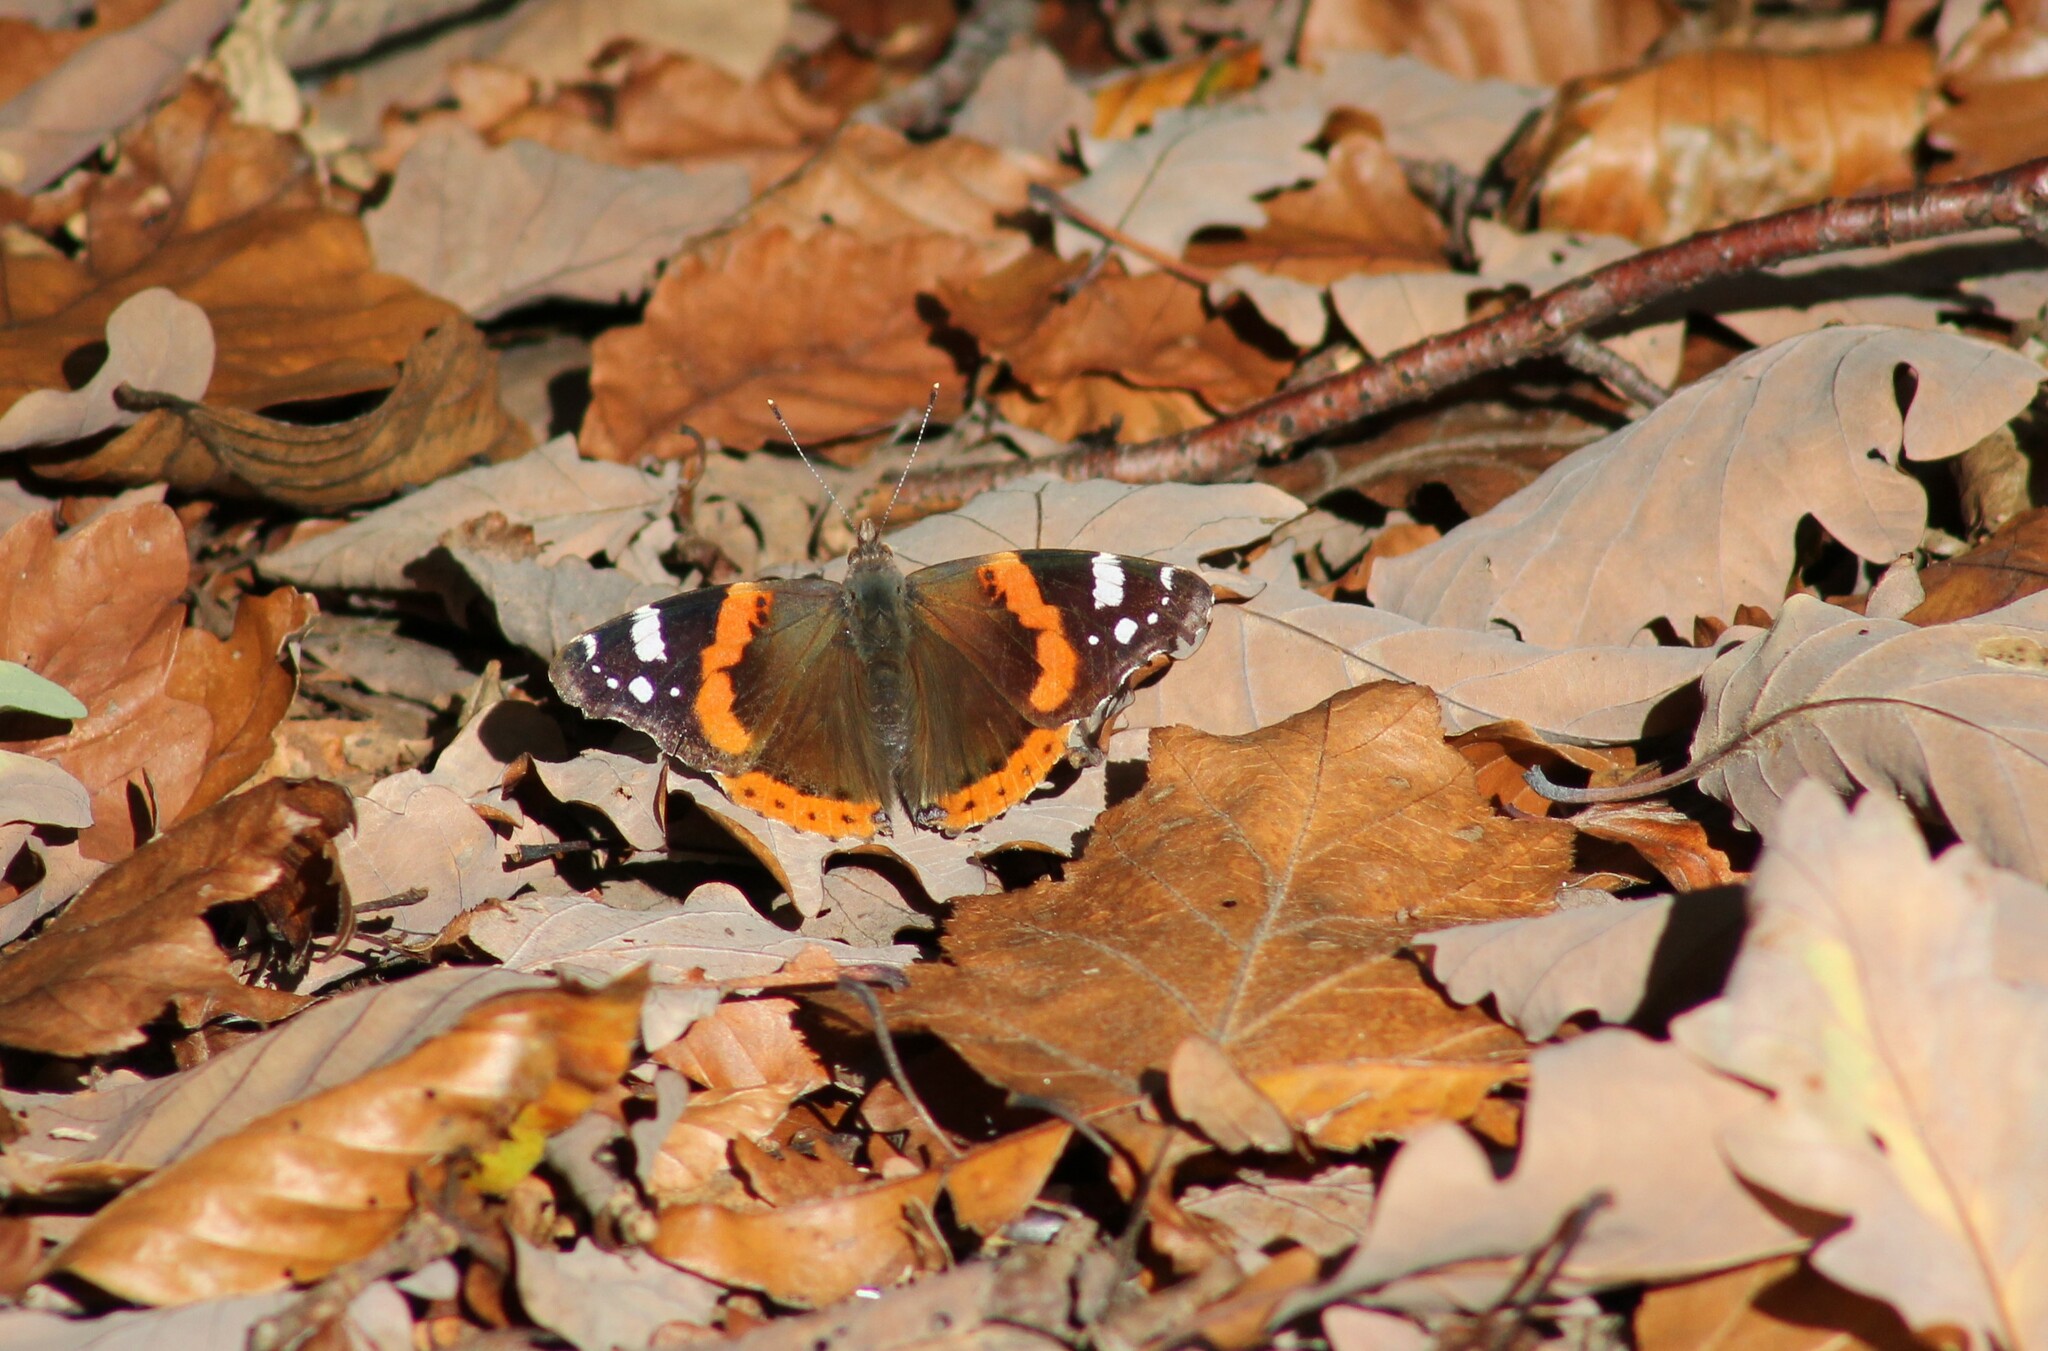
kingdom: Animalia
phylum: Arthropoda
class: Insecta
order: Lepidoptera
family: Nymphalidae
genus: Vanessa
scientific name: Vanessa atalanta
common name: Red admiral
